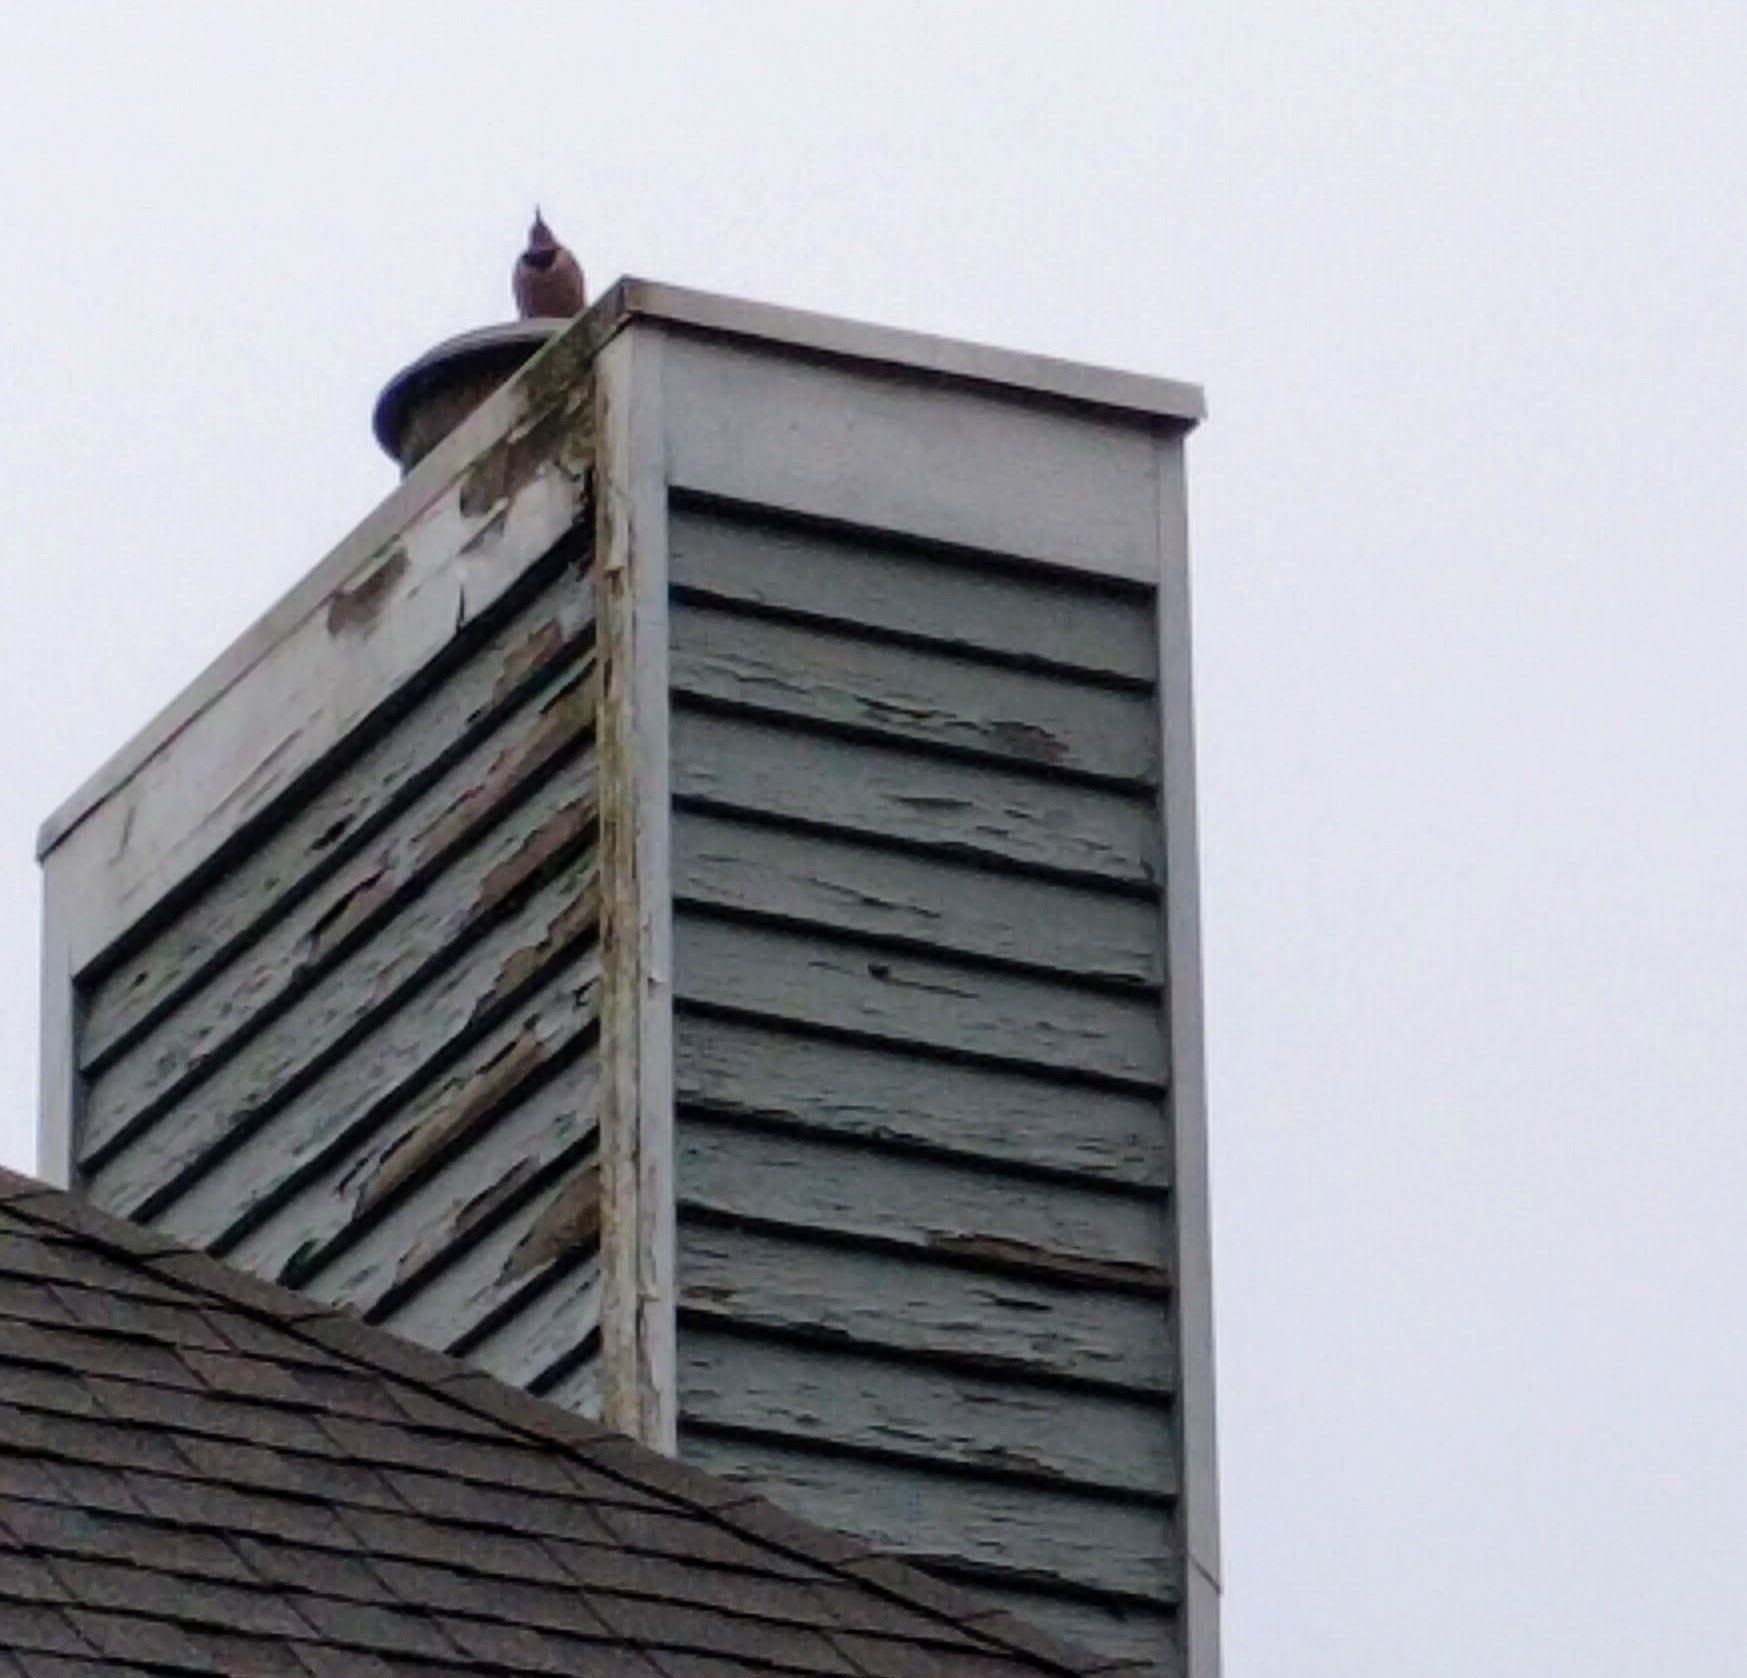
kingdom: Animalia
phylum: Chordata
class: Aves
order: Piciformes
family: Picidae
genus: Colaptes
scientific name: Colaptes auratus
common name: Northern flicker
